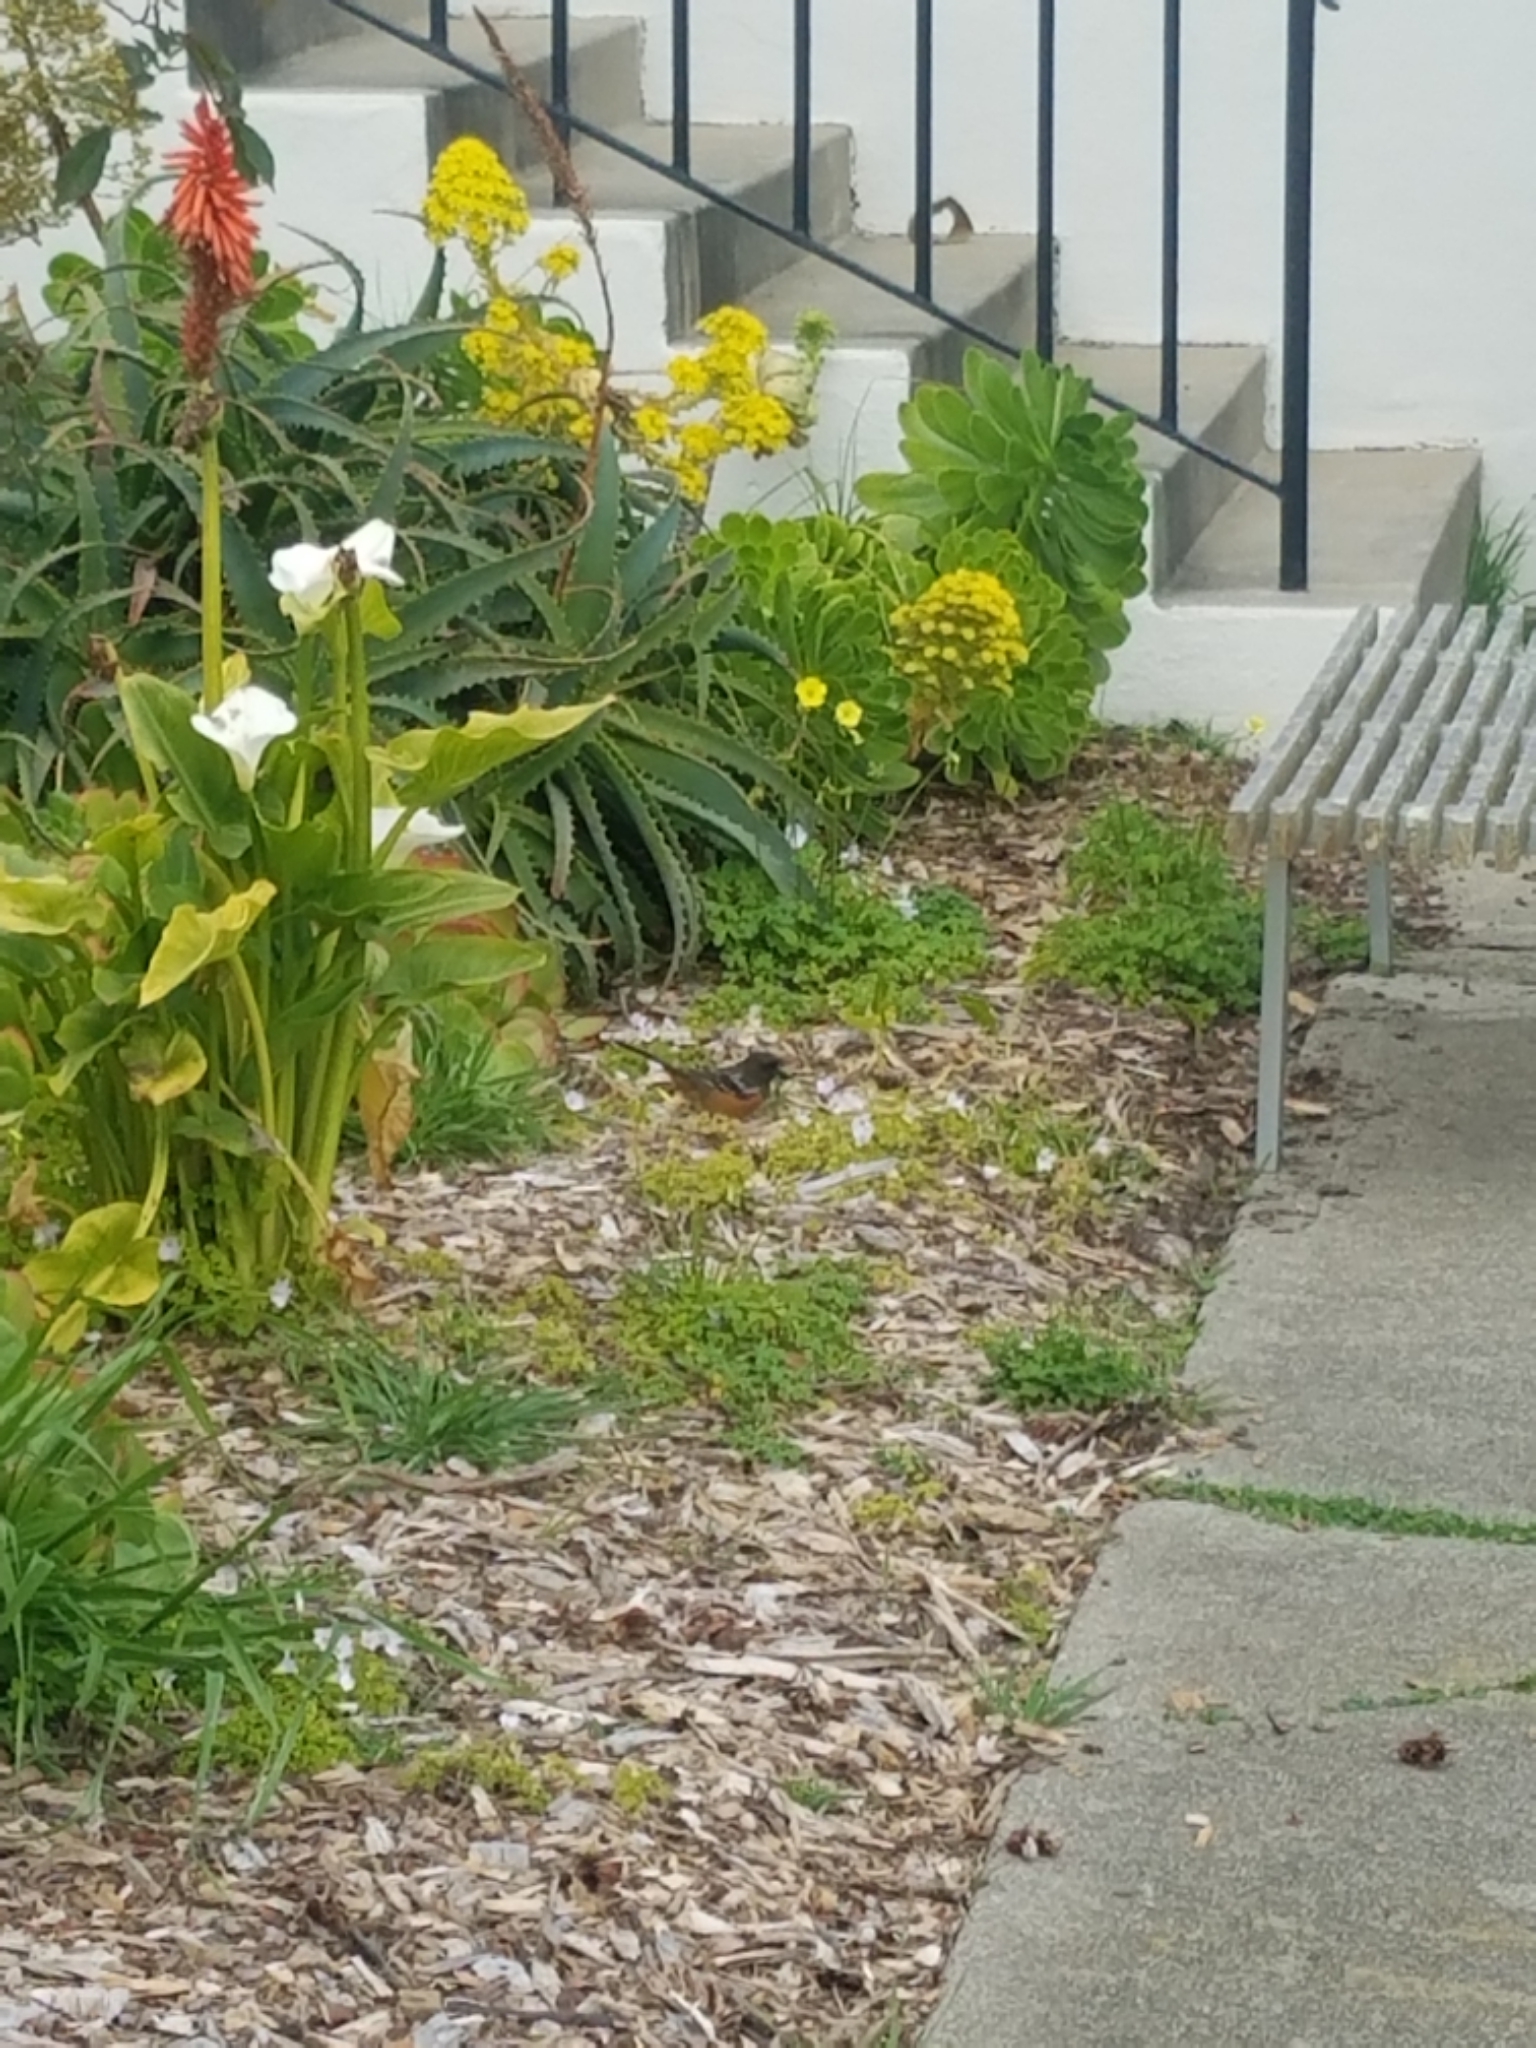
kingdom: Animalia
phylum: Chordata
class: Aves
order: Passeriformes
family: Passerellidae
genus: Pipilo
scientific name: Pipilo maculatus
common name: Spotted towhee
